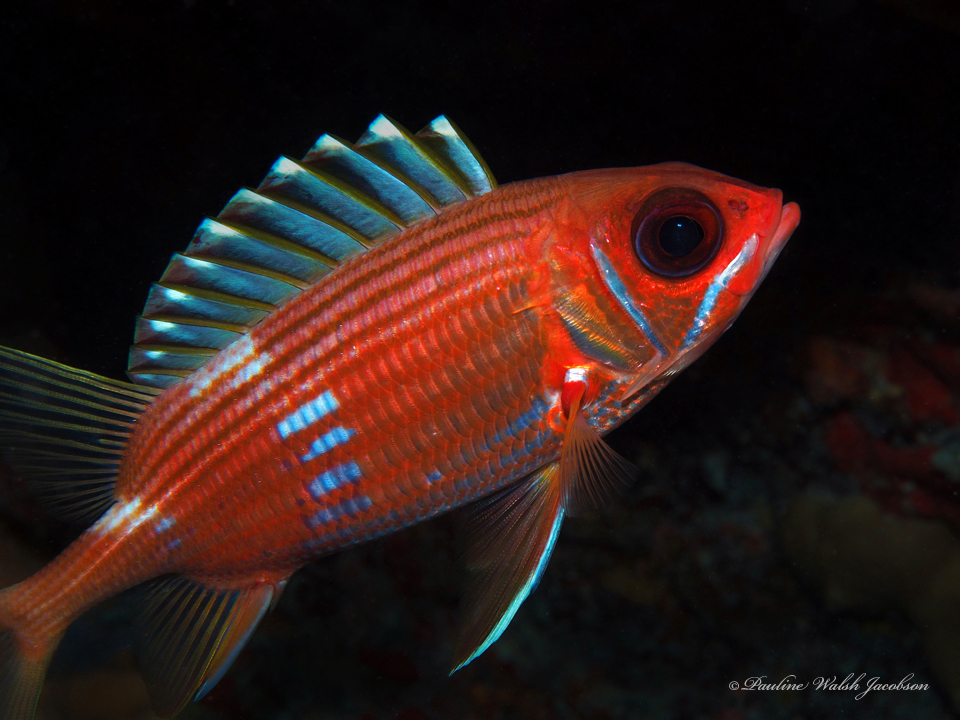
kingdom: Animalia
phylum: Chordata
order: Beryciformes
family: Holocentridae
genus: Holocentrus
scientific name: Holocentrus rufus
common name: Longspine squirrelfish
